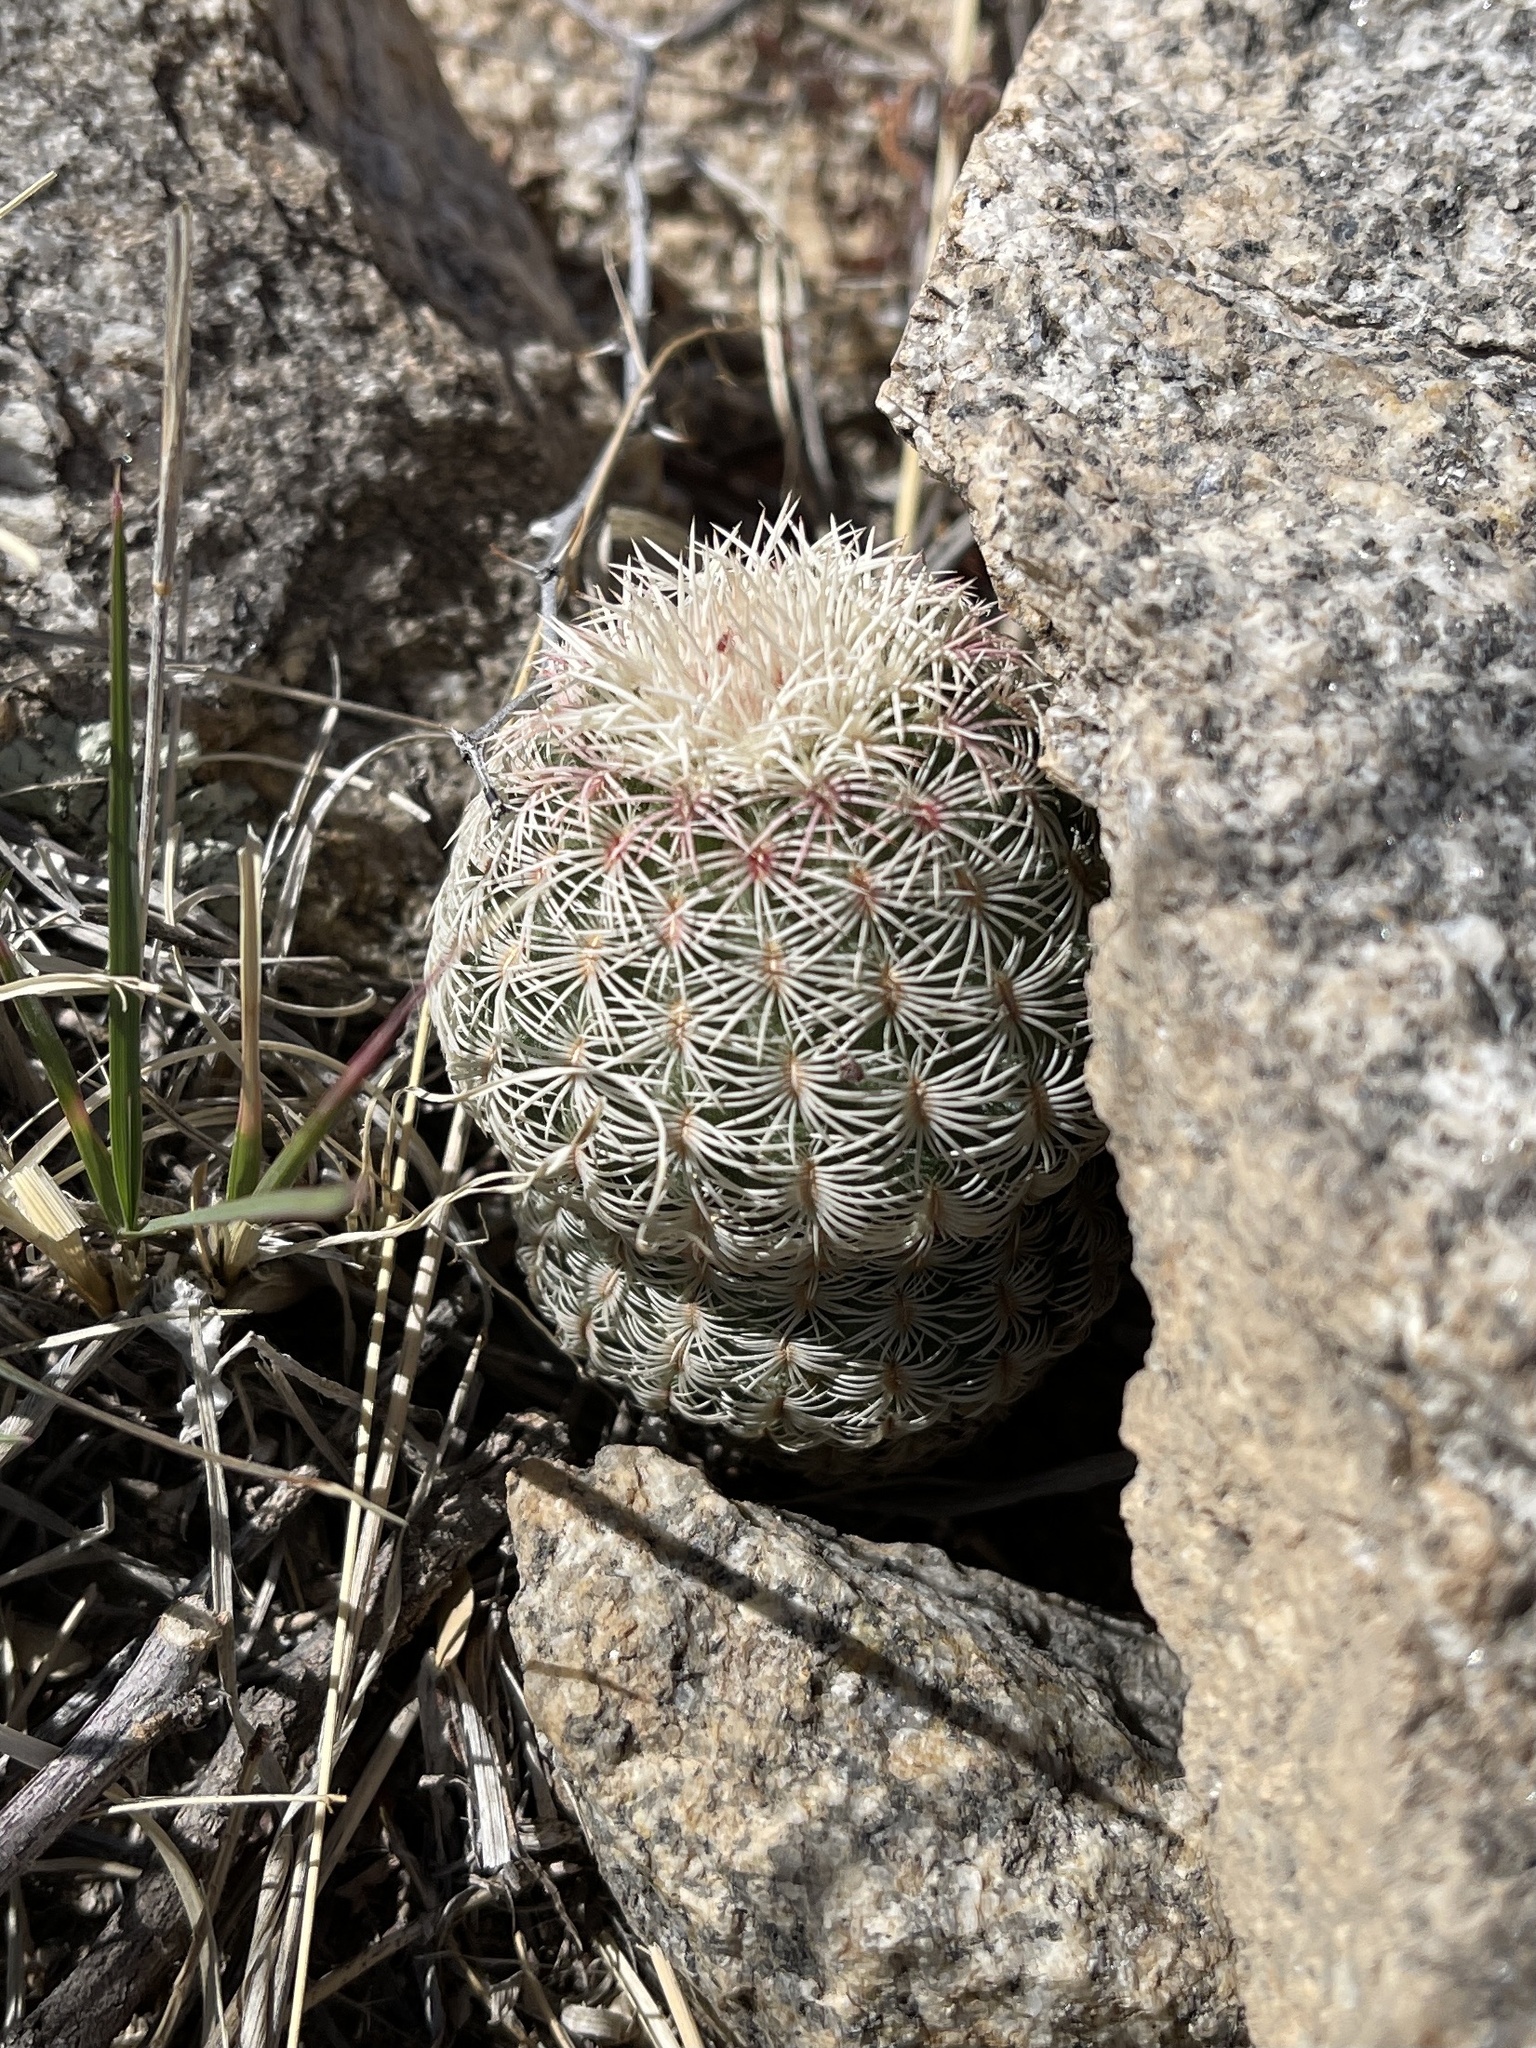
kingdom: Plantae
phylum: Tracheophyta
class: Magnoliopsida
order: Caryophyllales
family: Cactaceae
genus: Echinocereus
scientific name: Echinocereus rigidissimus
